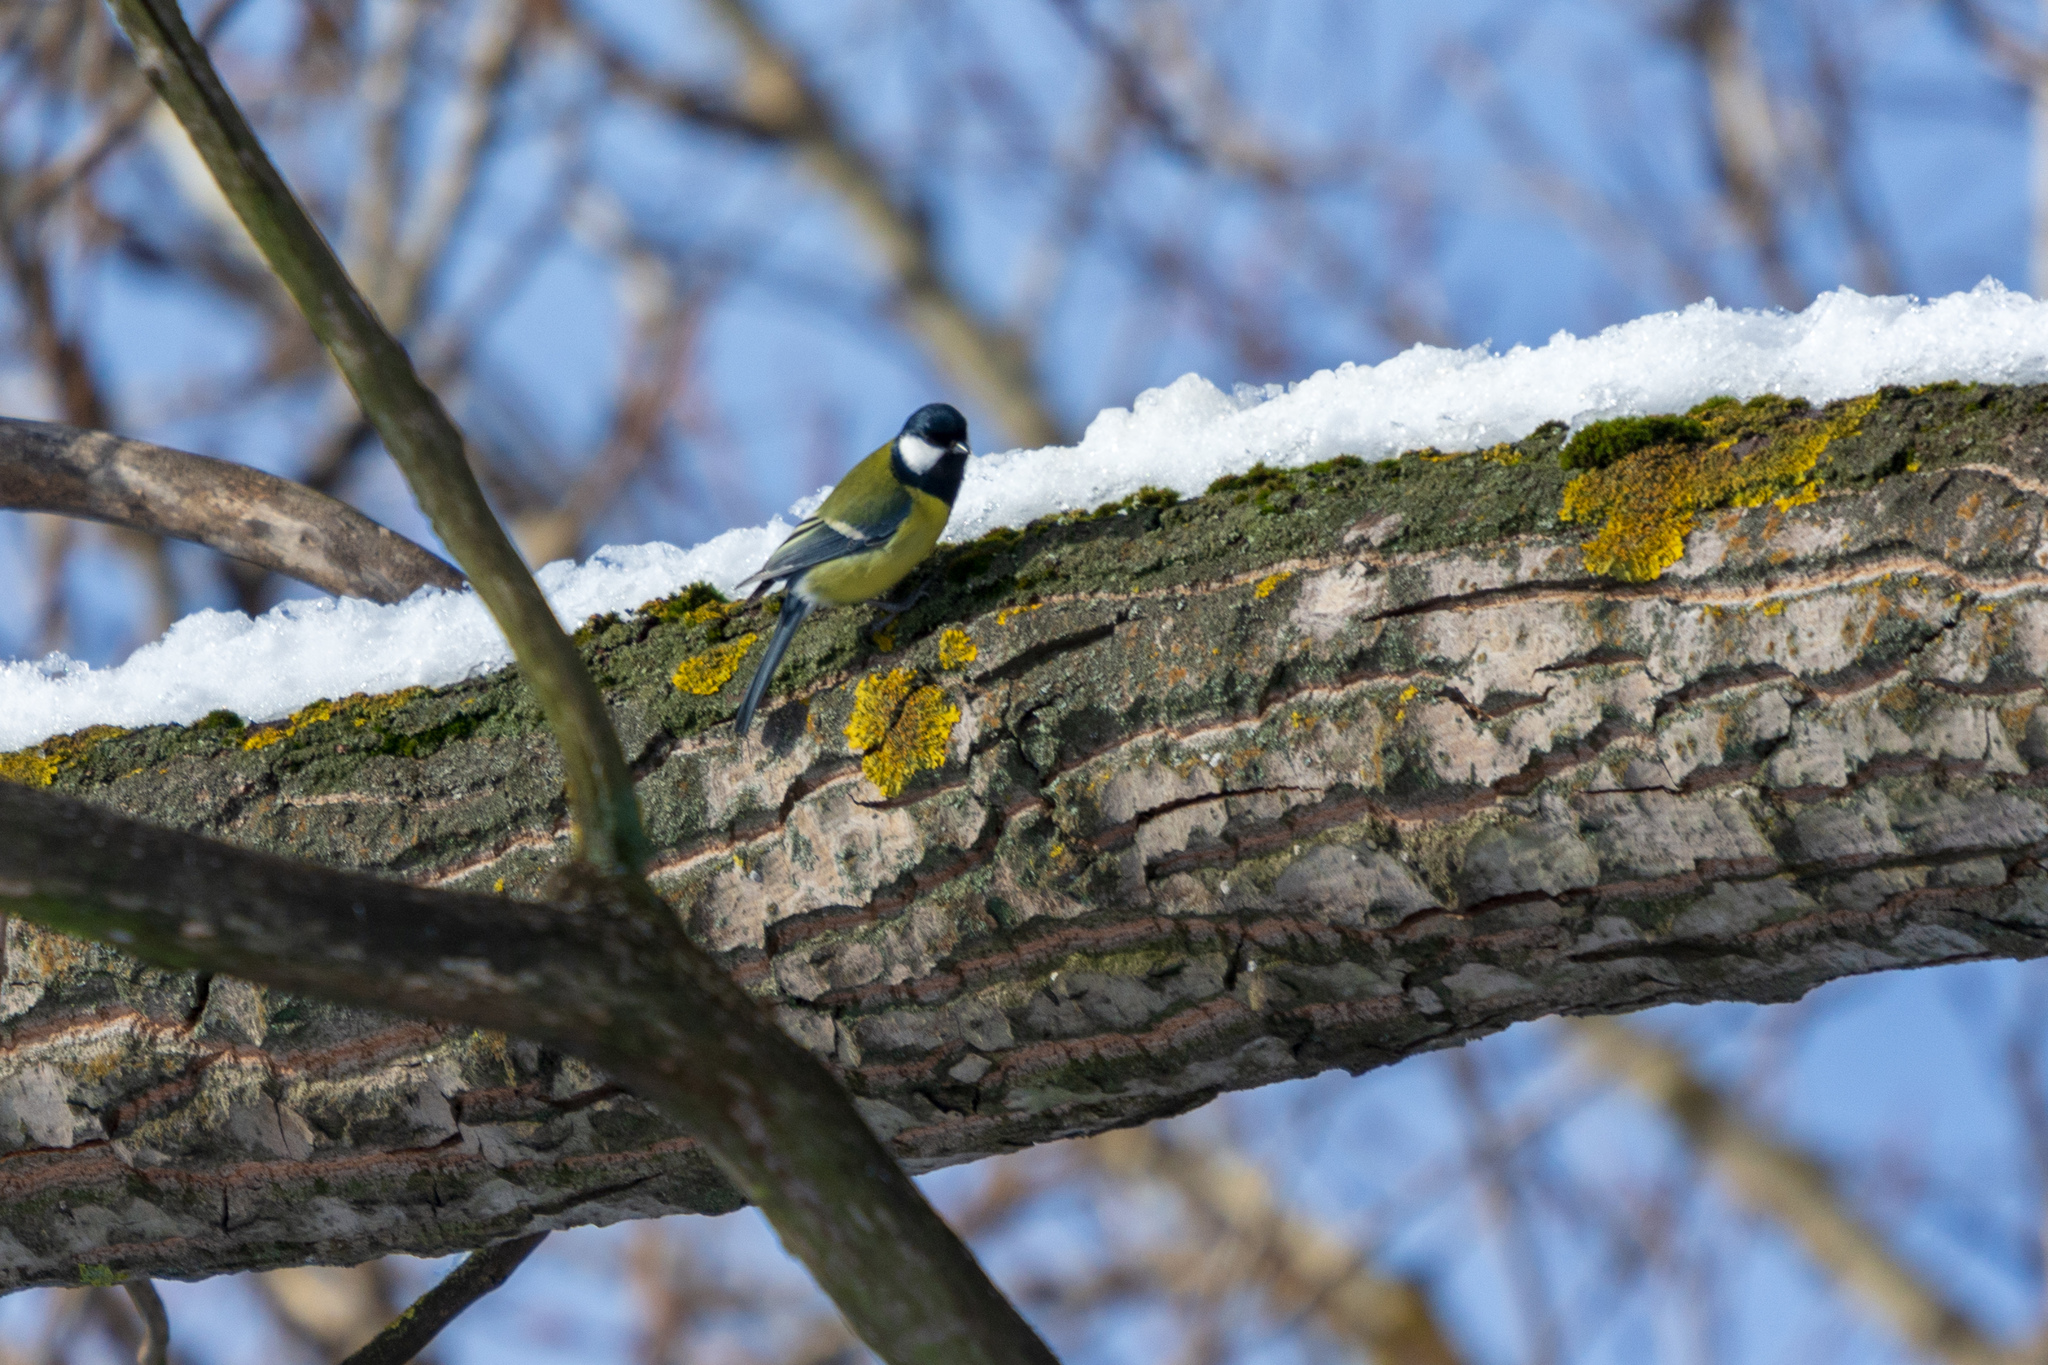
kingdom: Animalia
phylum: Chordata
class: Aves
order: Passeriformes
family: Paridae
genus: Parus
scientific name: Parus major
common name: Great tit
